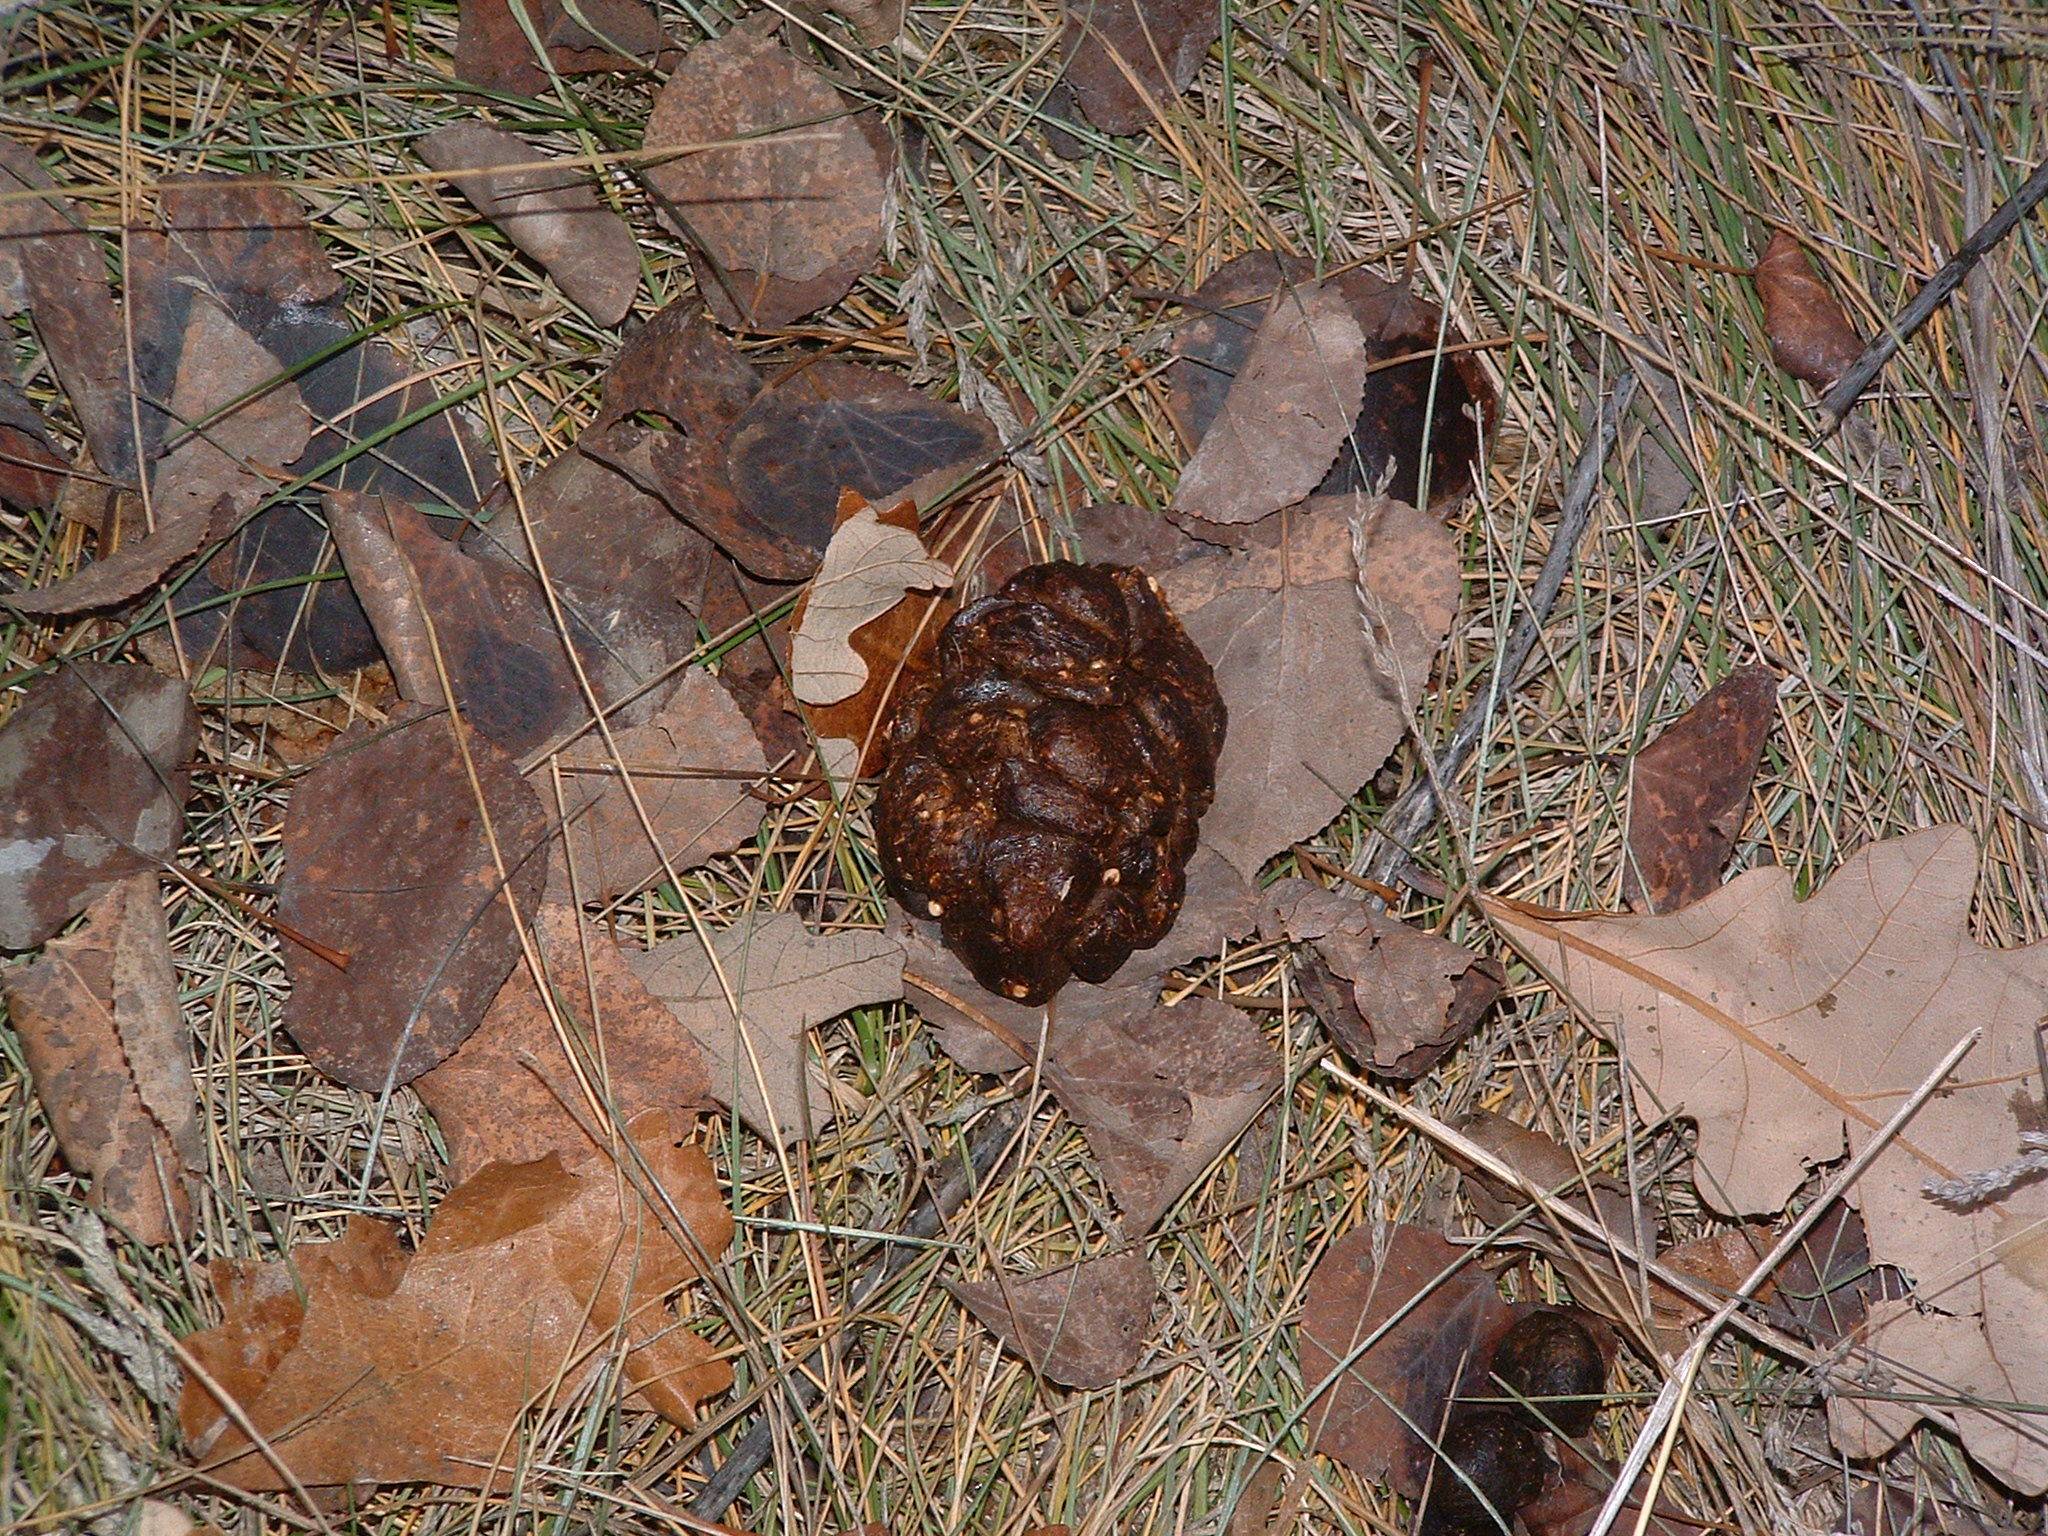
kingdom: Animalia
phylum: Chordata
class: Mammalia
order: Artiodactyla
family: Cervidae
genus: Odocoileus
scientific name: Odocoileus virginianus
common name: White-tailed deer
